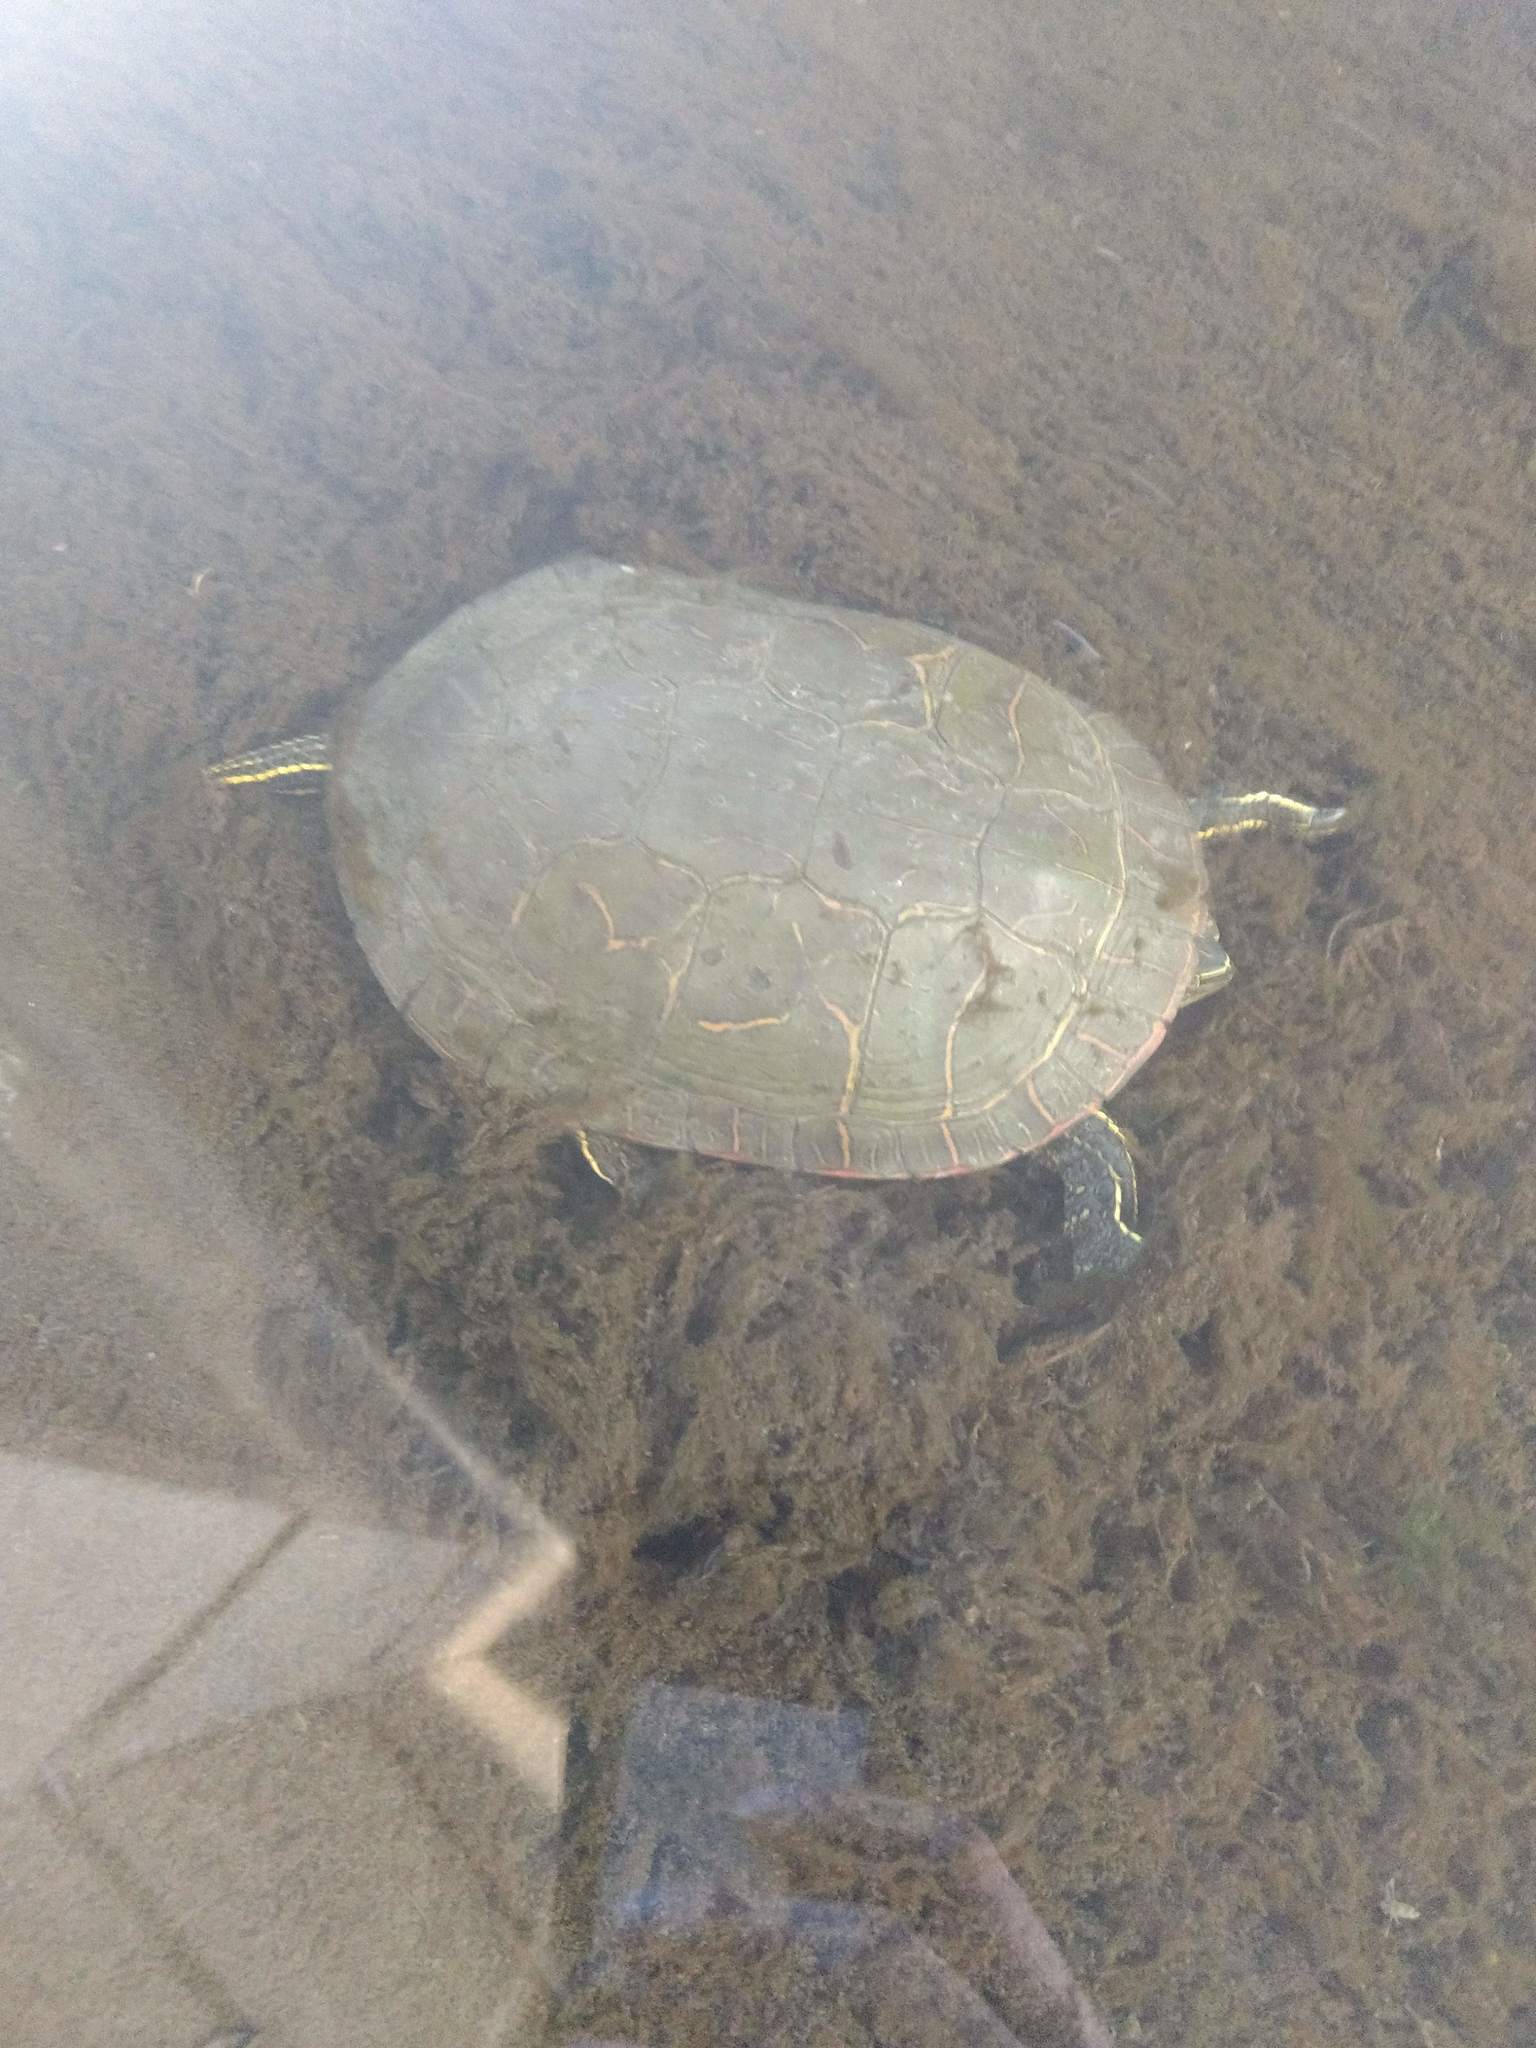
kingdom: Animalia
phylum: Chordata
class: Testudines
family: Emydidae
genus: Chrysemys
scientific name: Chrysemys picta
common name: Painted turtle
